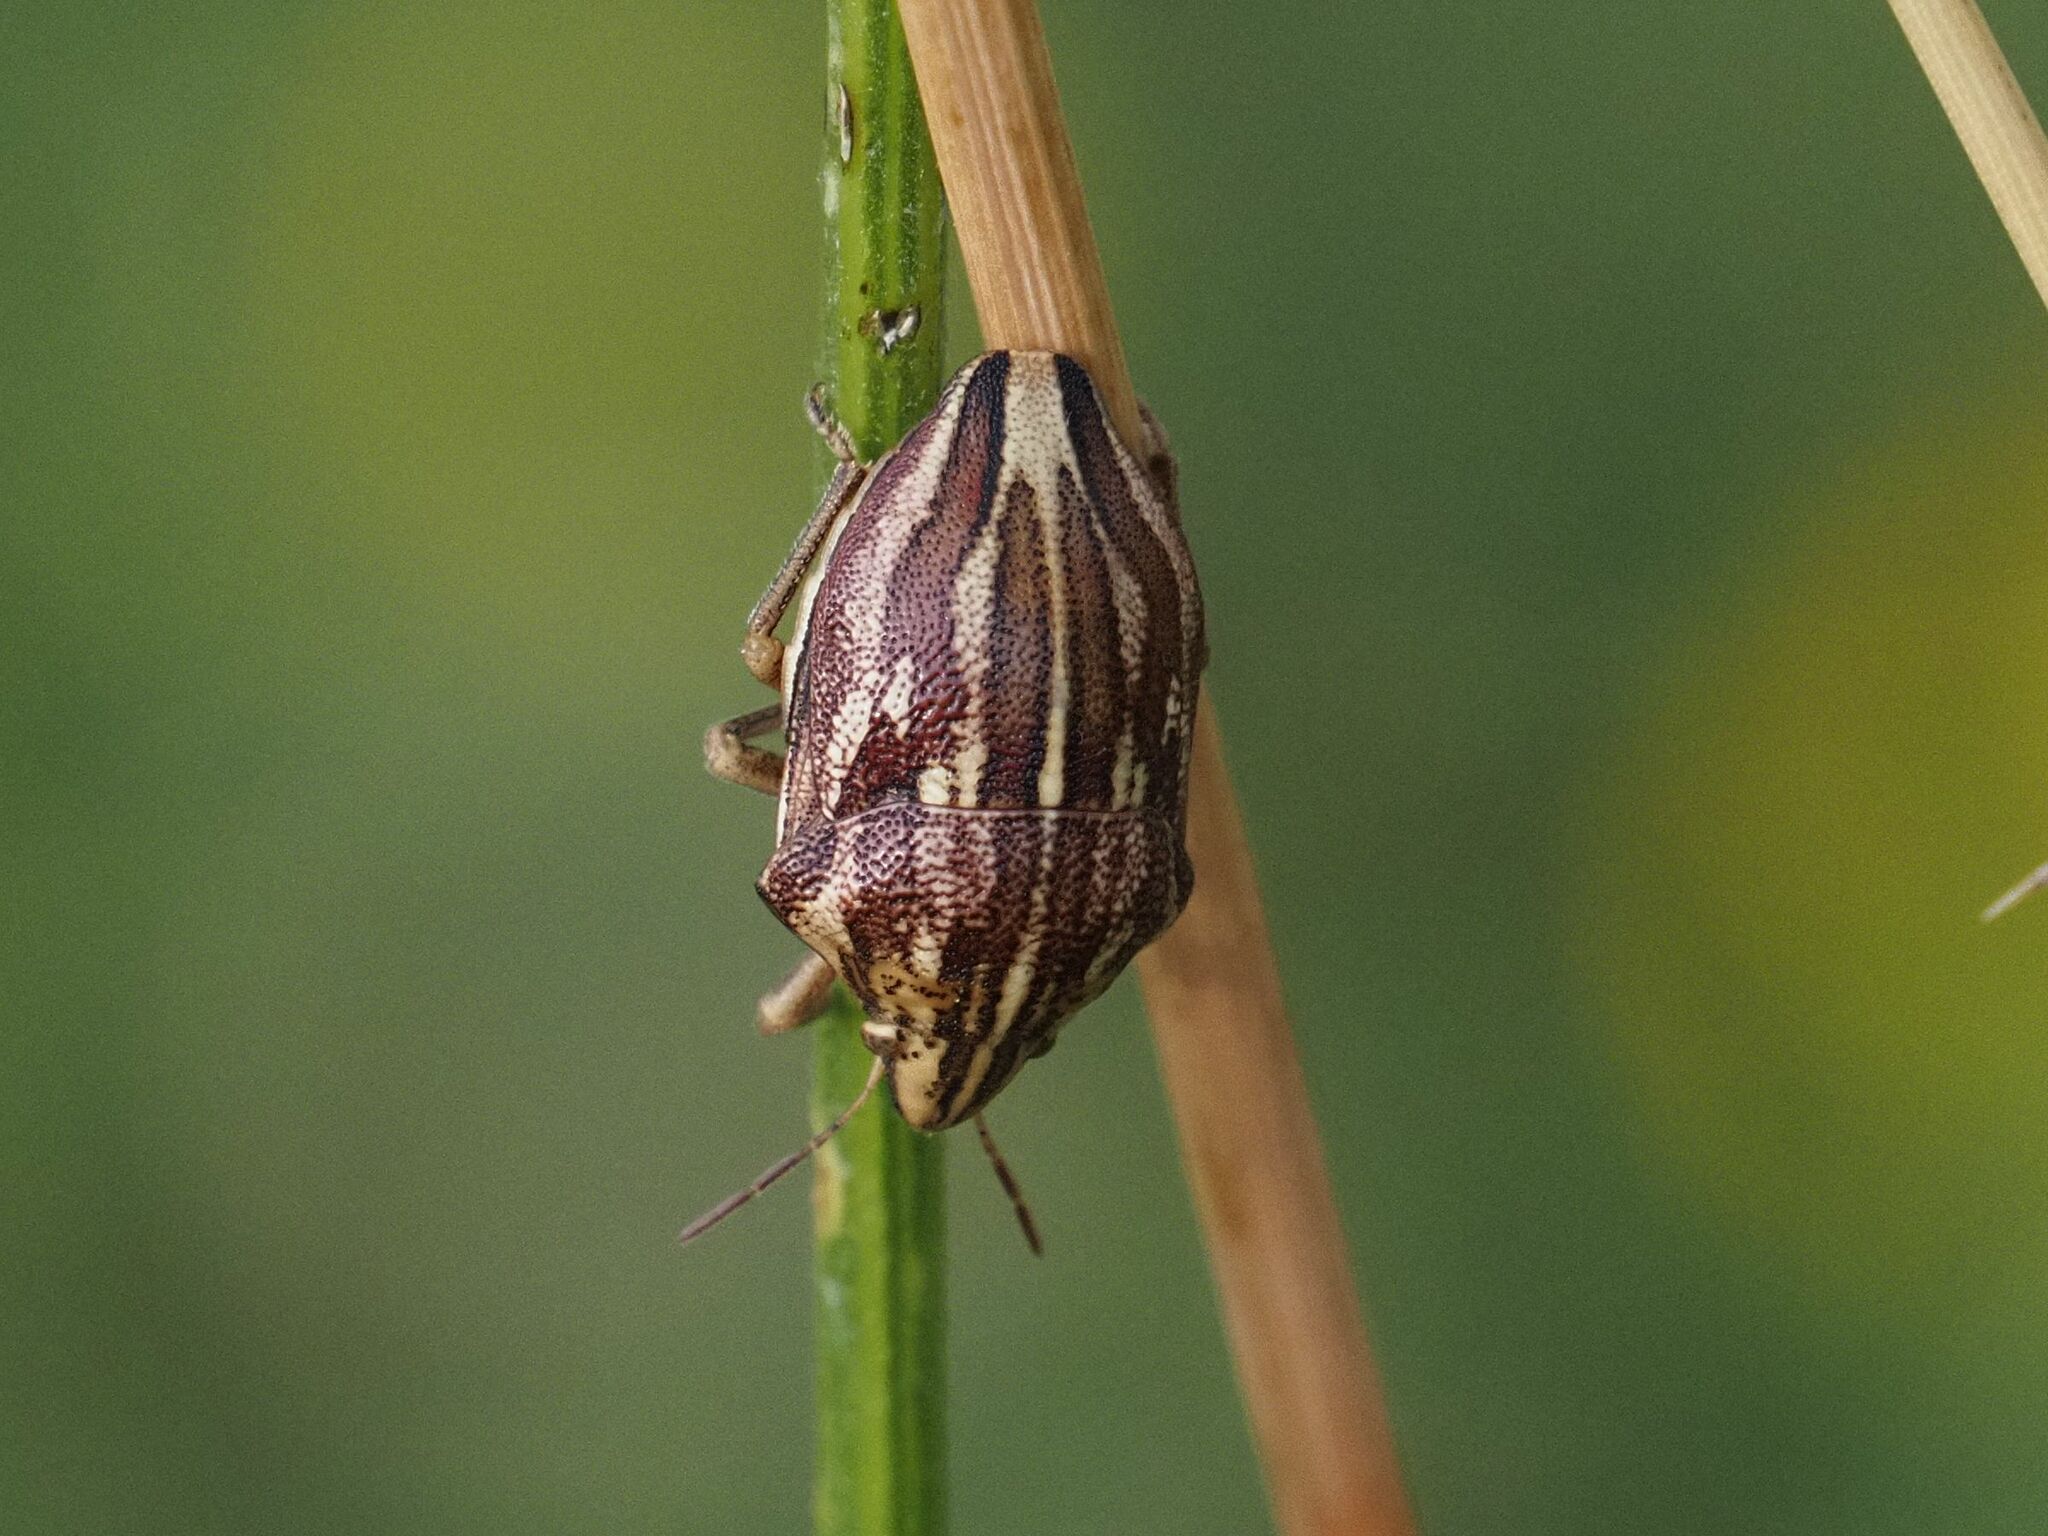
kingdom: Animalia
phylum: Arthropoda
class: Insecta
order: Hemiptera
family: Scutelleridae
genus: Odontotarsus
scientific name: Odontotarsus purpureolineatus
